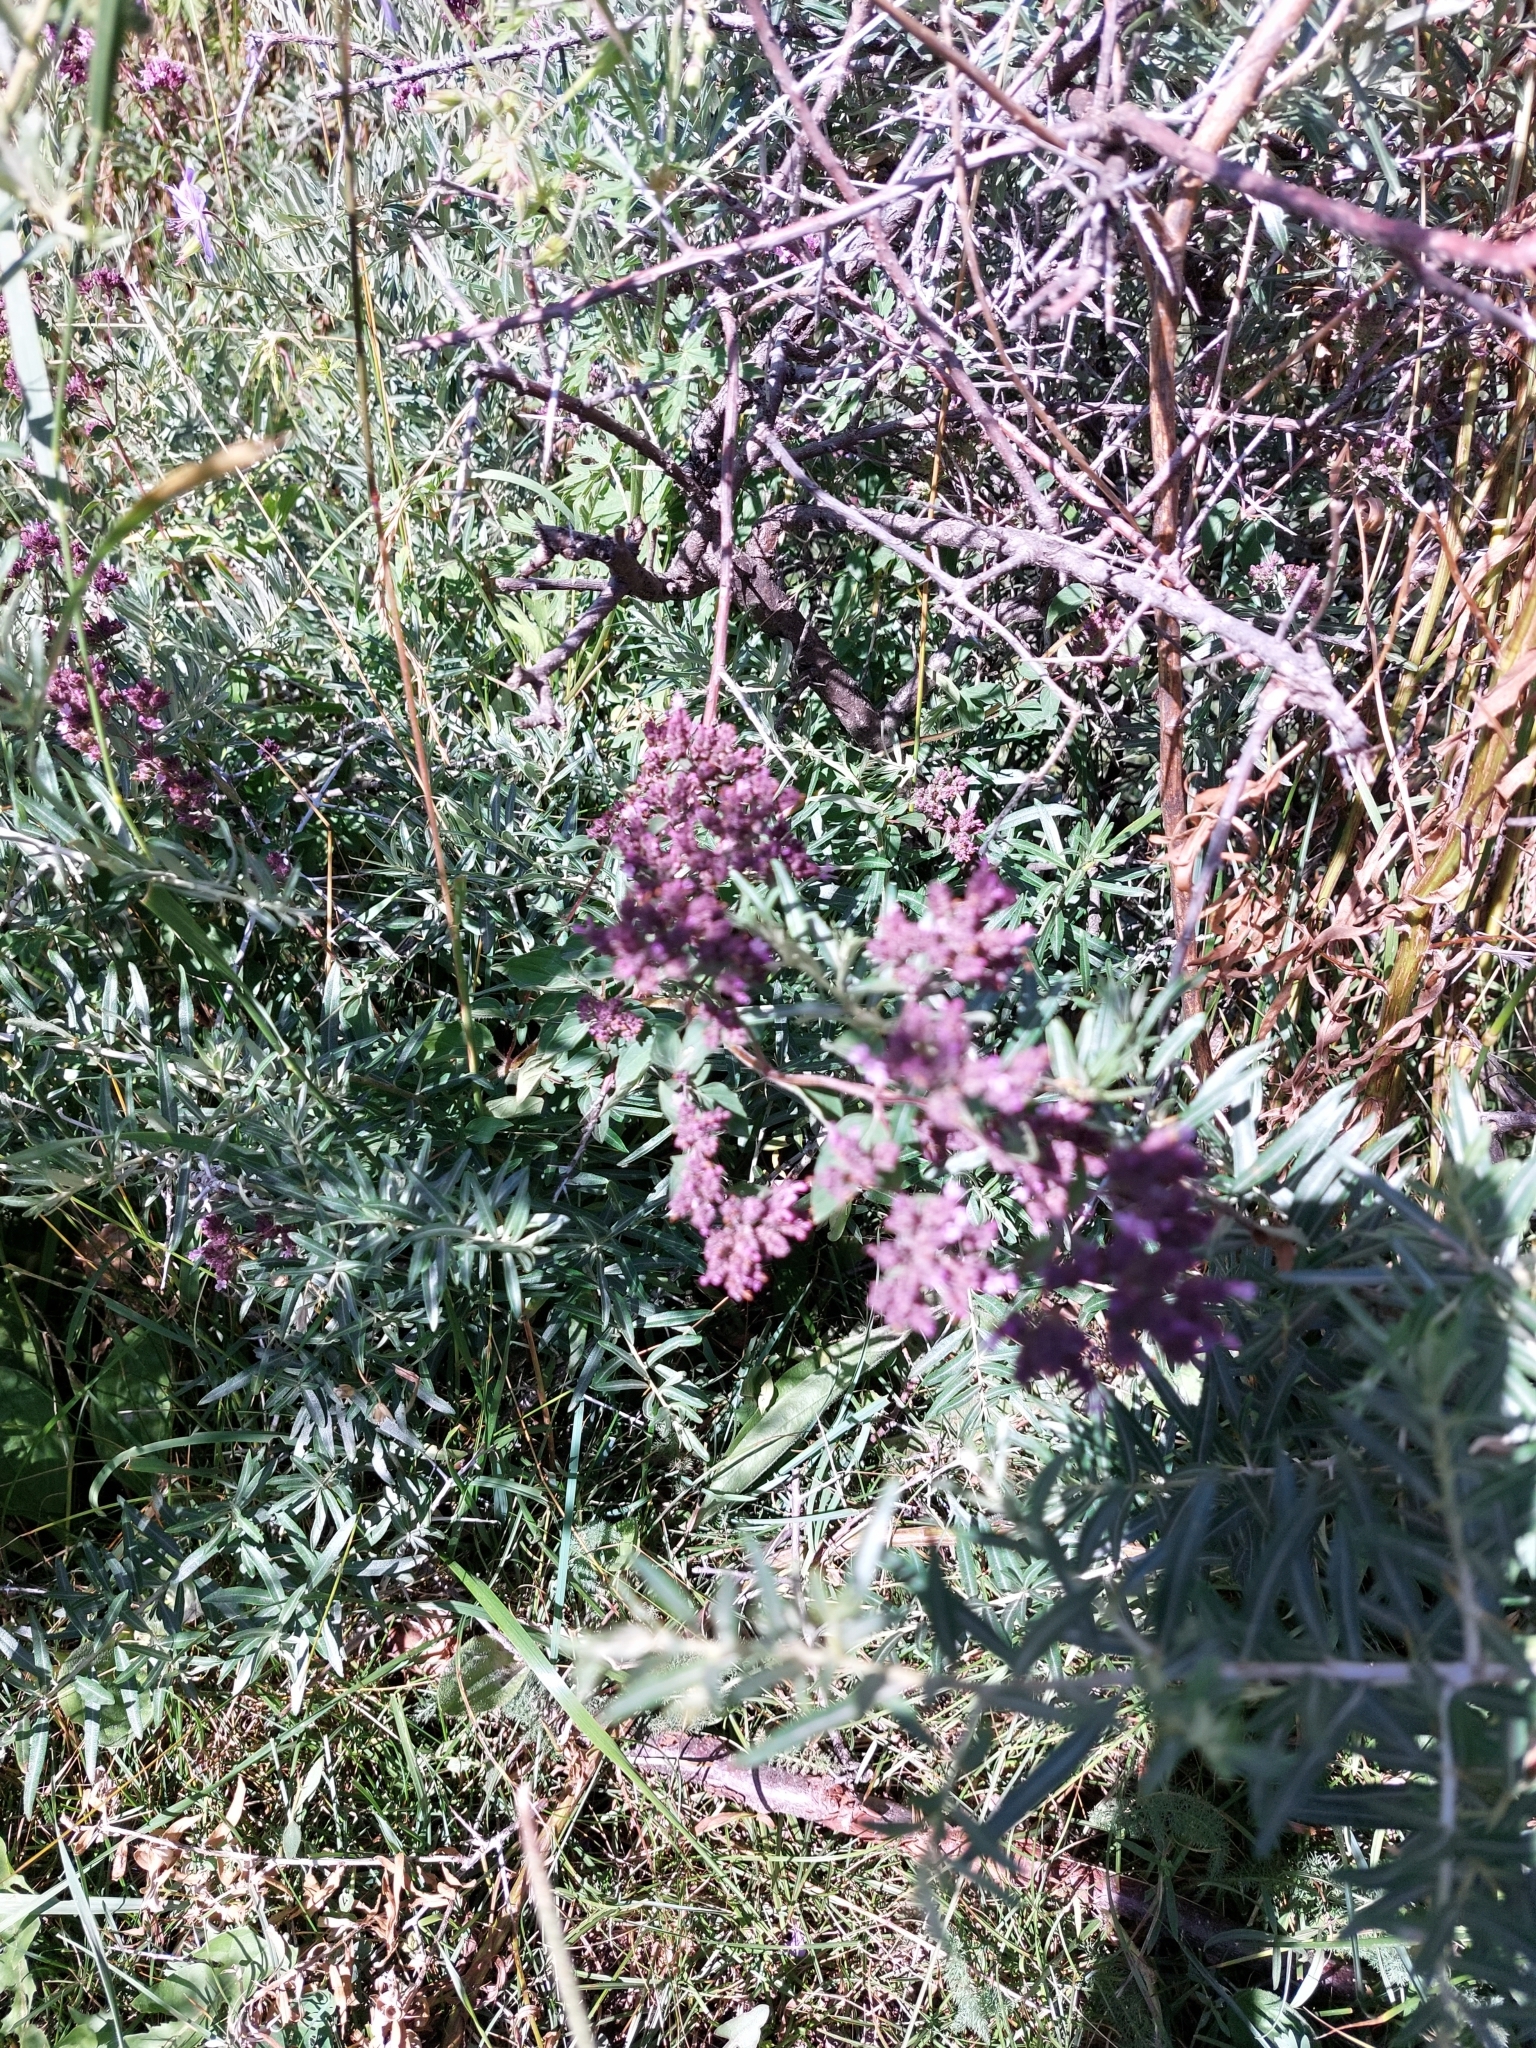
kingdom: Plantae
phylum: Tracheophyta
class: Magnoliopsida
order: Lamiales
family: Lamiaceae
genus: Origanum
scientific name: Origanum vulgare
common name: Wild marjoram
